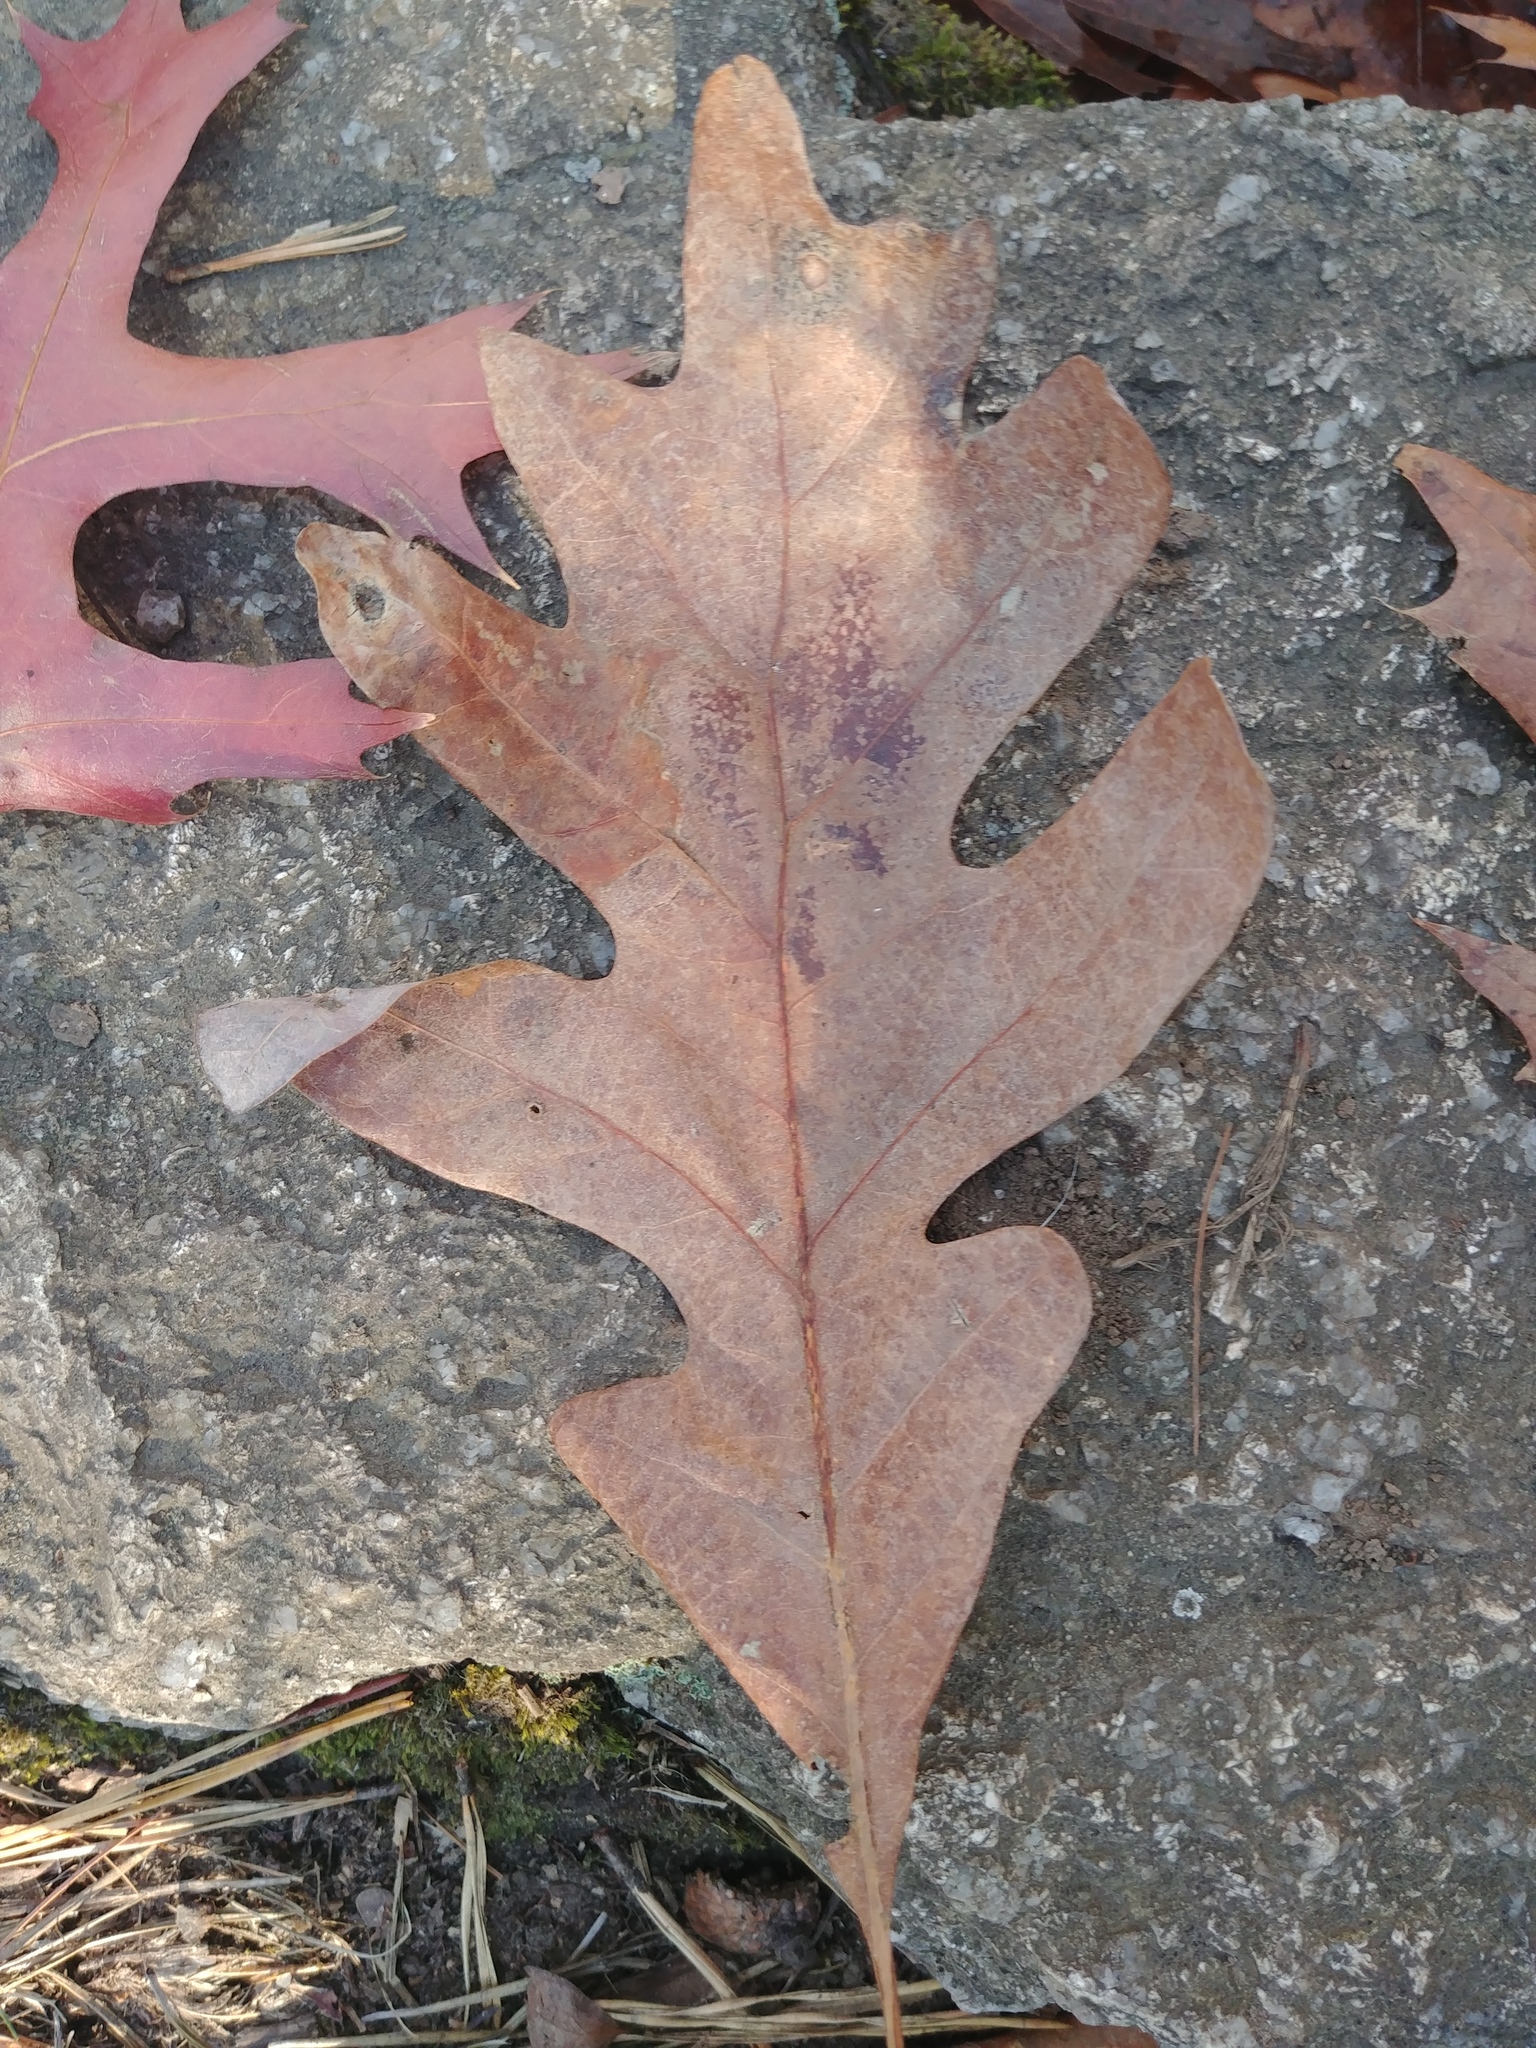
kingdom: Plantae
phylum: Tracheophyta
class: Magnoliopsida
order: Fagales
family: Fagaceae
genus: Quercus
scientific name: Quercus alba
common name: White oak
